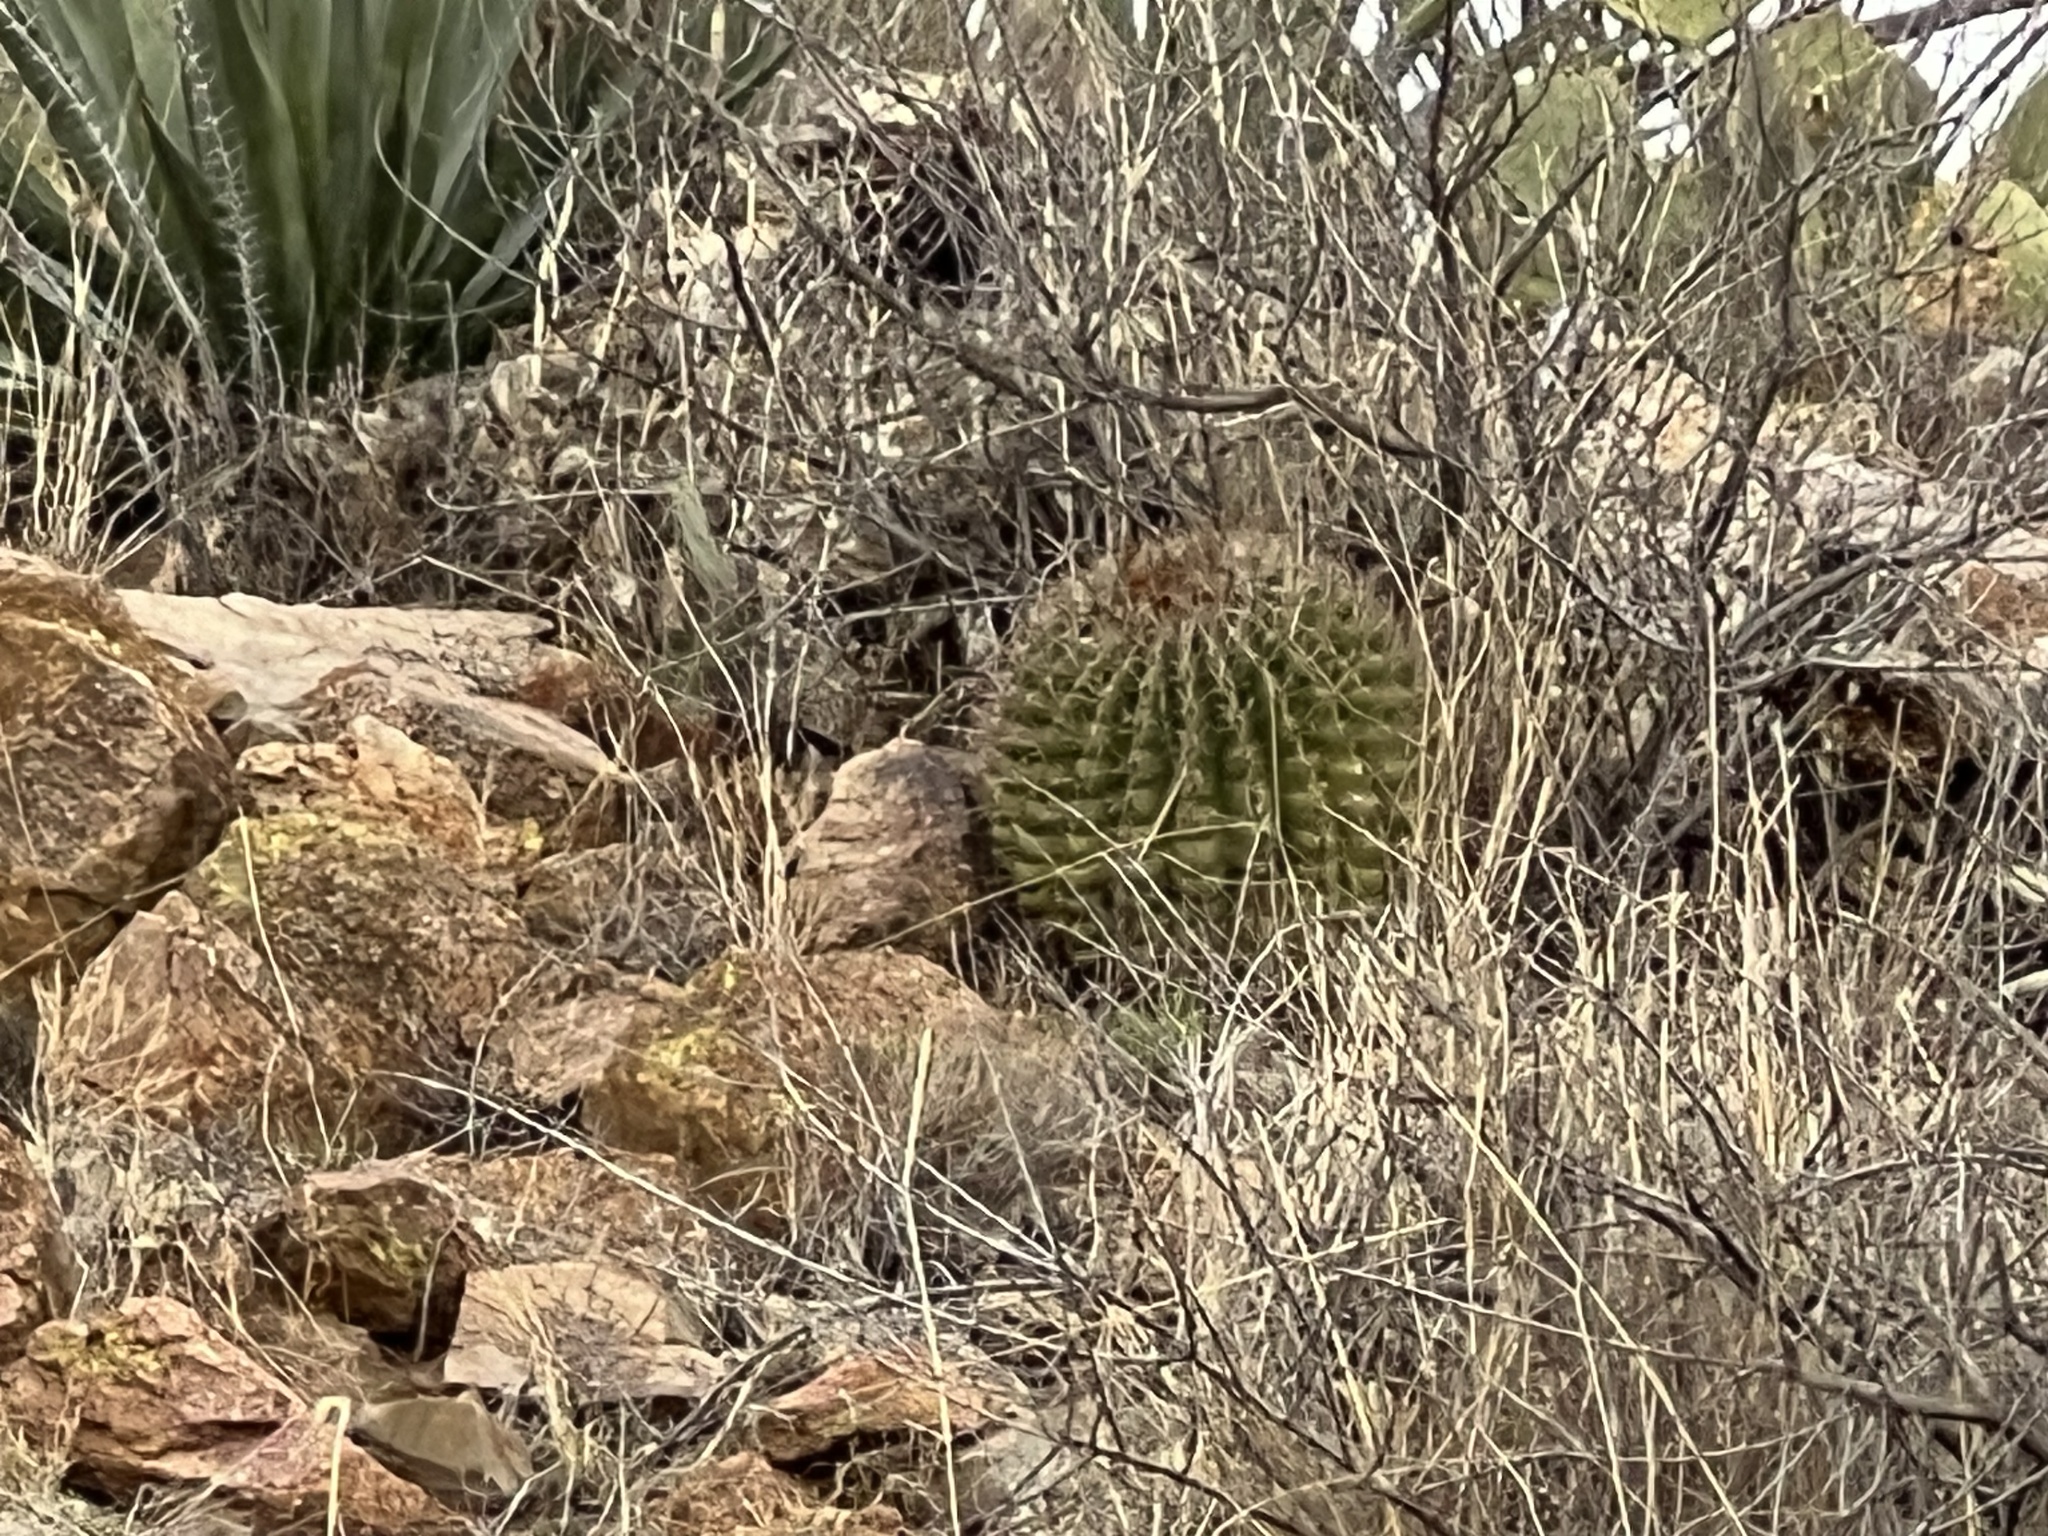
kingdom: Plantae
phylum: Tracheophyta
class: Magnoliopsida
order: Caryophyllales
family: Cactaceae
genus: Ferocactus
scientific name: Ferocactus wislizeni
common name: Candy barrel cactus
